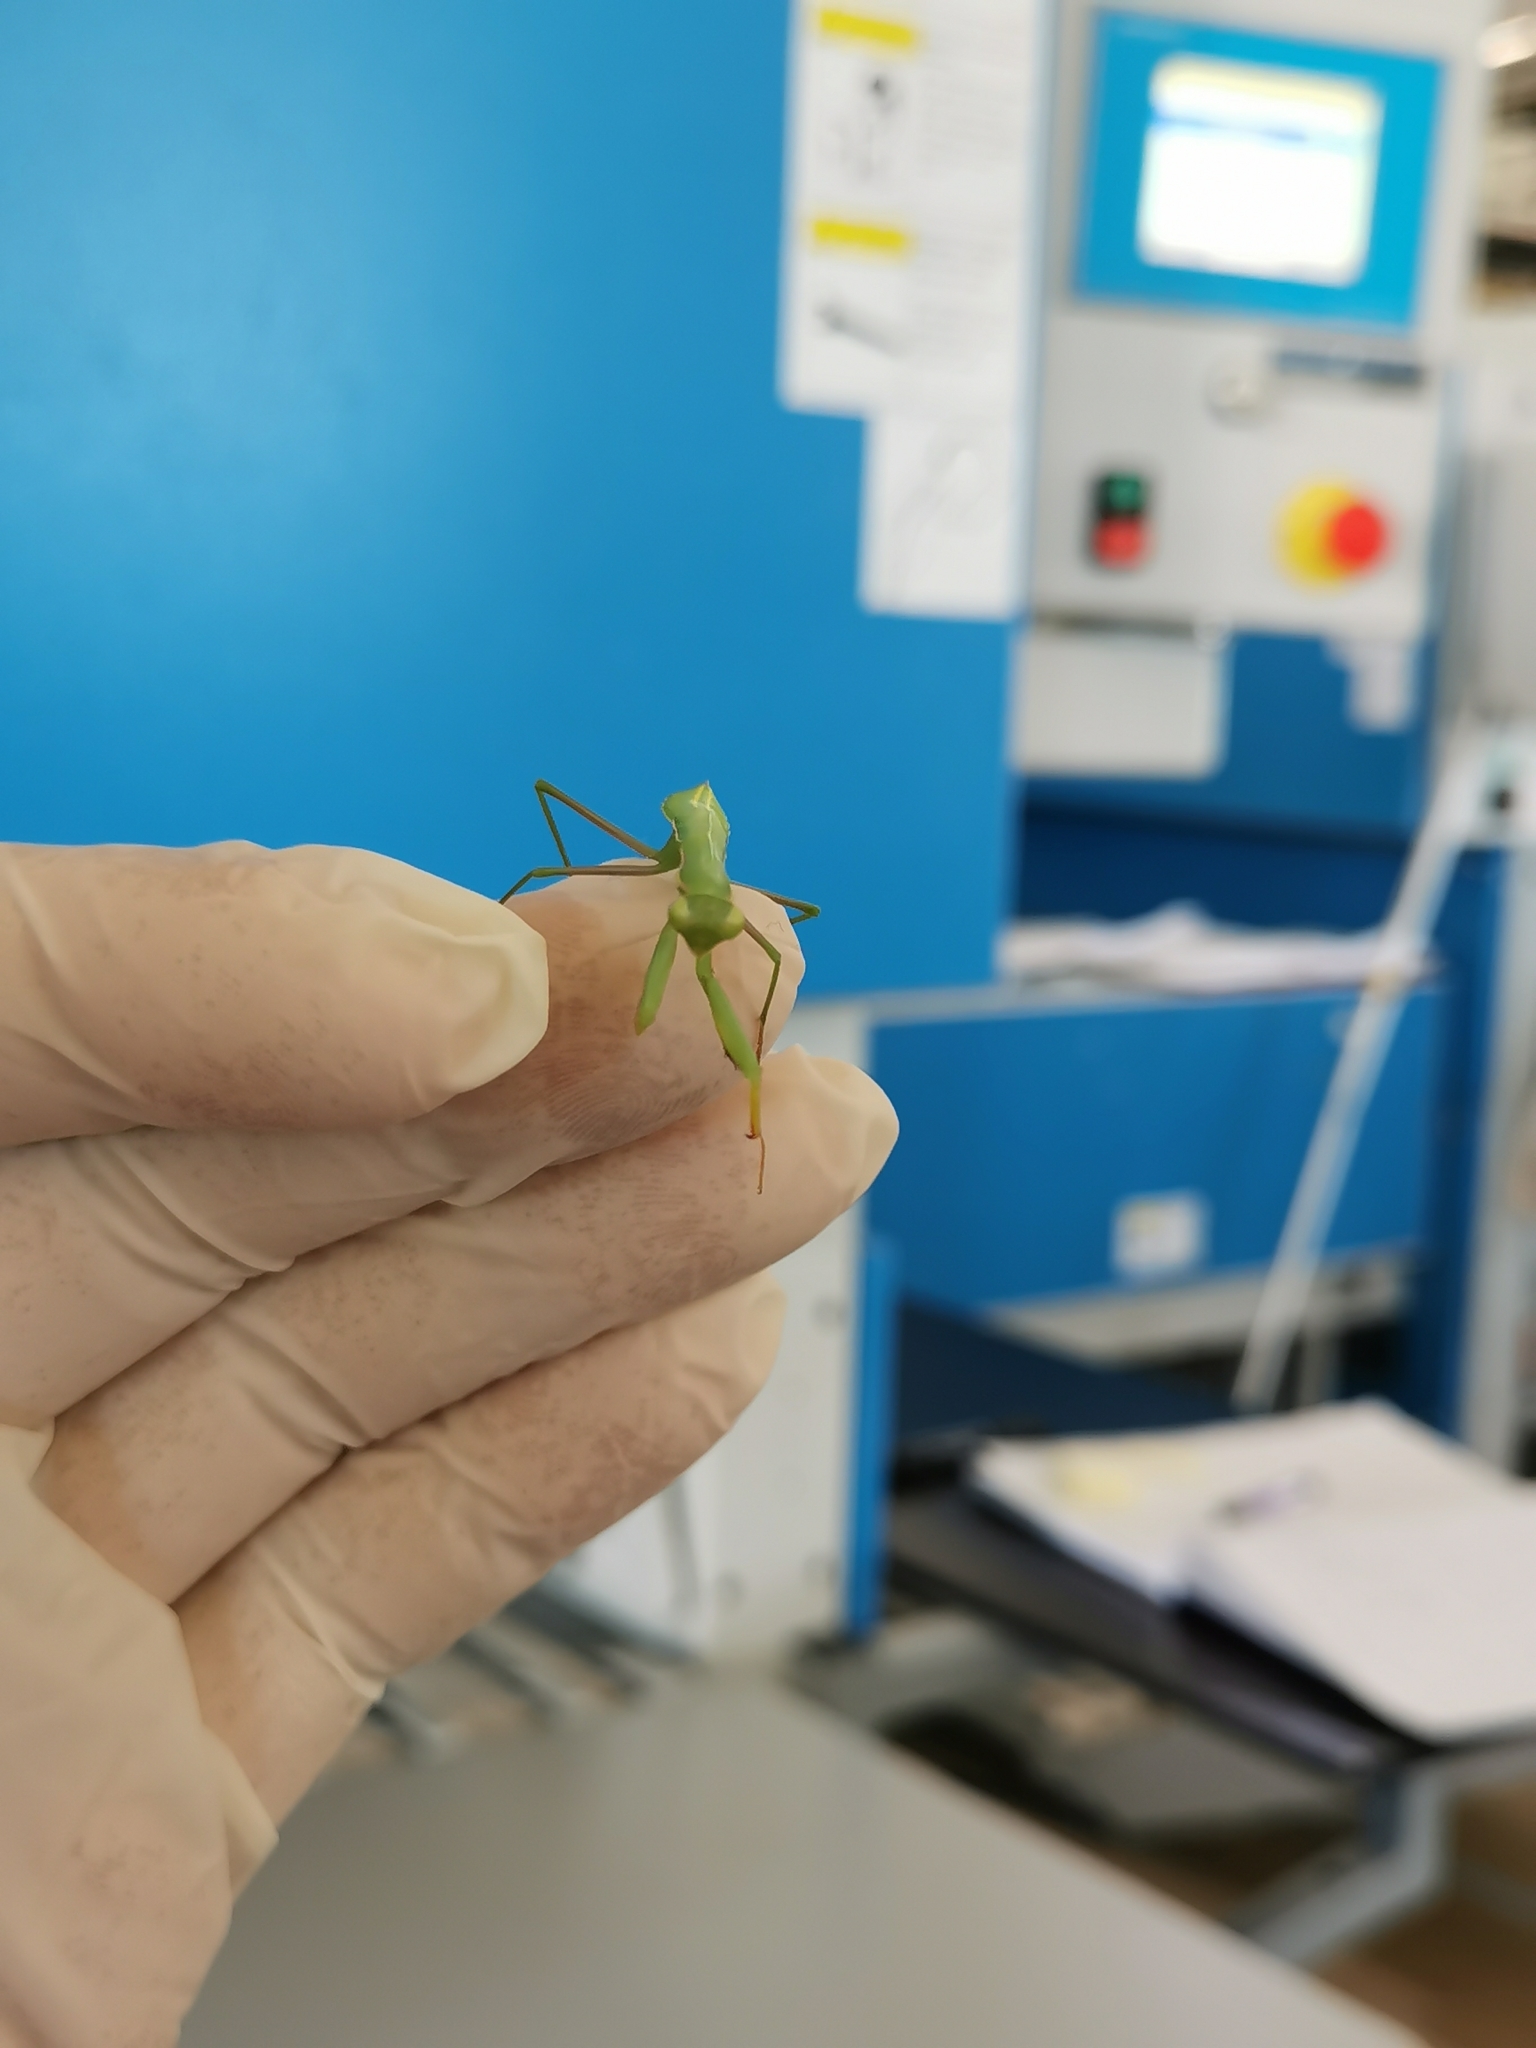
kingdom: Animalia
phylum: Arthropoda
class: Insecta
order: Mantodea
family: Mantidae
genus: Mantis
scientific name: Mantis religiosa
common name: Praying mantis
